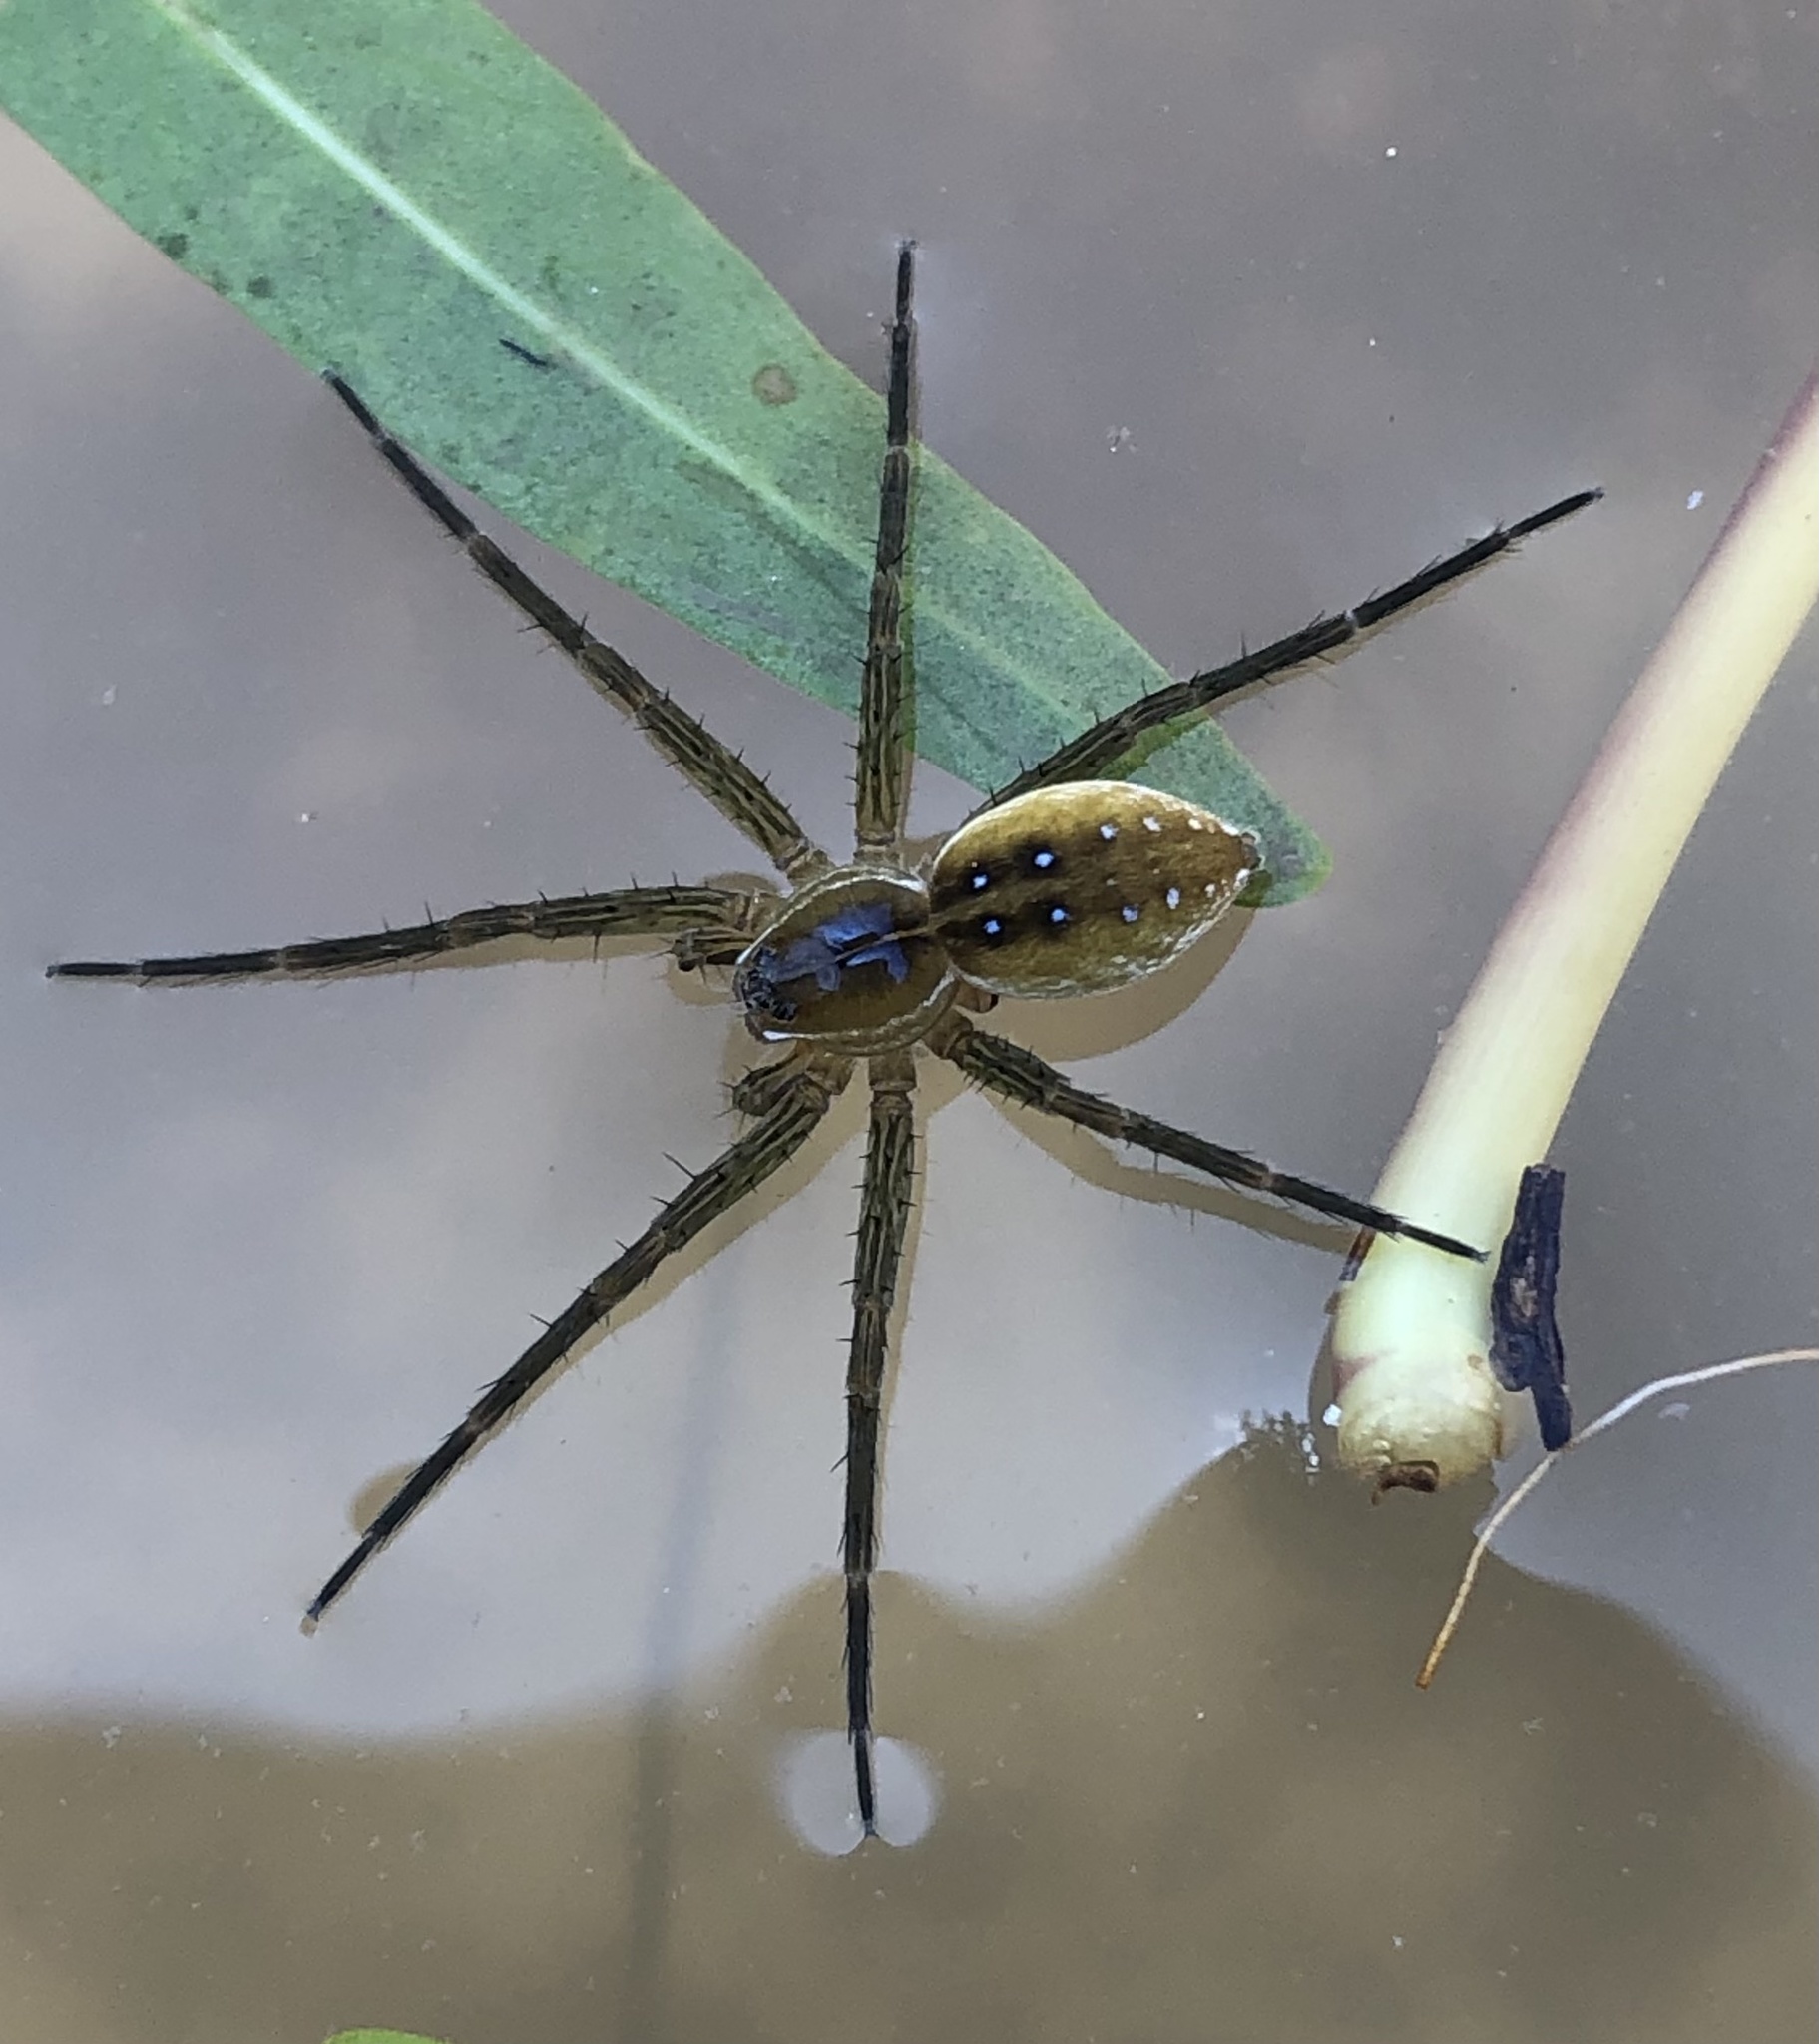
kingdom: Animalia
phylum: Arthropoda
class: Arachnida
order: Araneae
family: Pisauridae
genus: Dolomedes
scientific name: Dolomedes triton
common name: Six-spotted fishing spider
